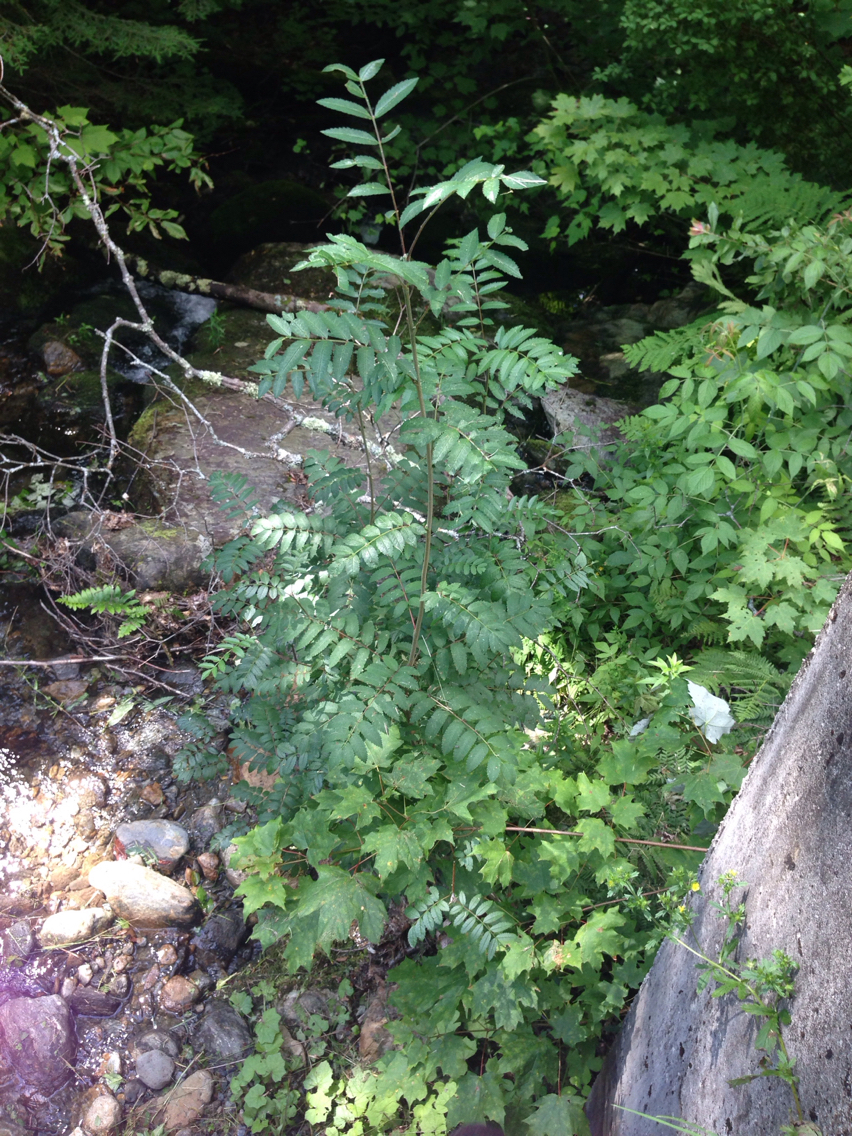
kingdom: Plantae
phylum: Tracheophyta
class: Magnoliopsida
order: Rosales
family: Rosaceae
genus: Sorbus
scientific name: Sorbus americana
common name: American mountain-ash
